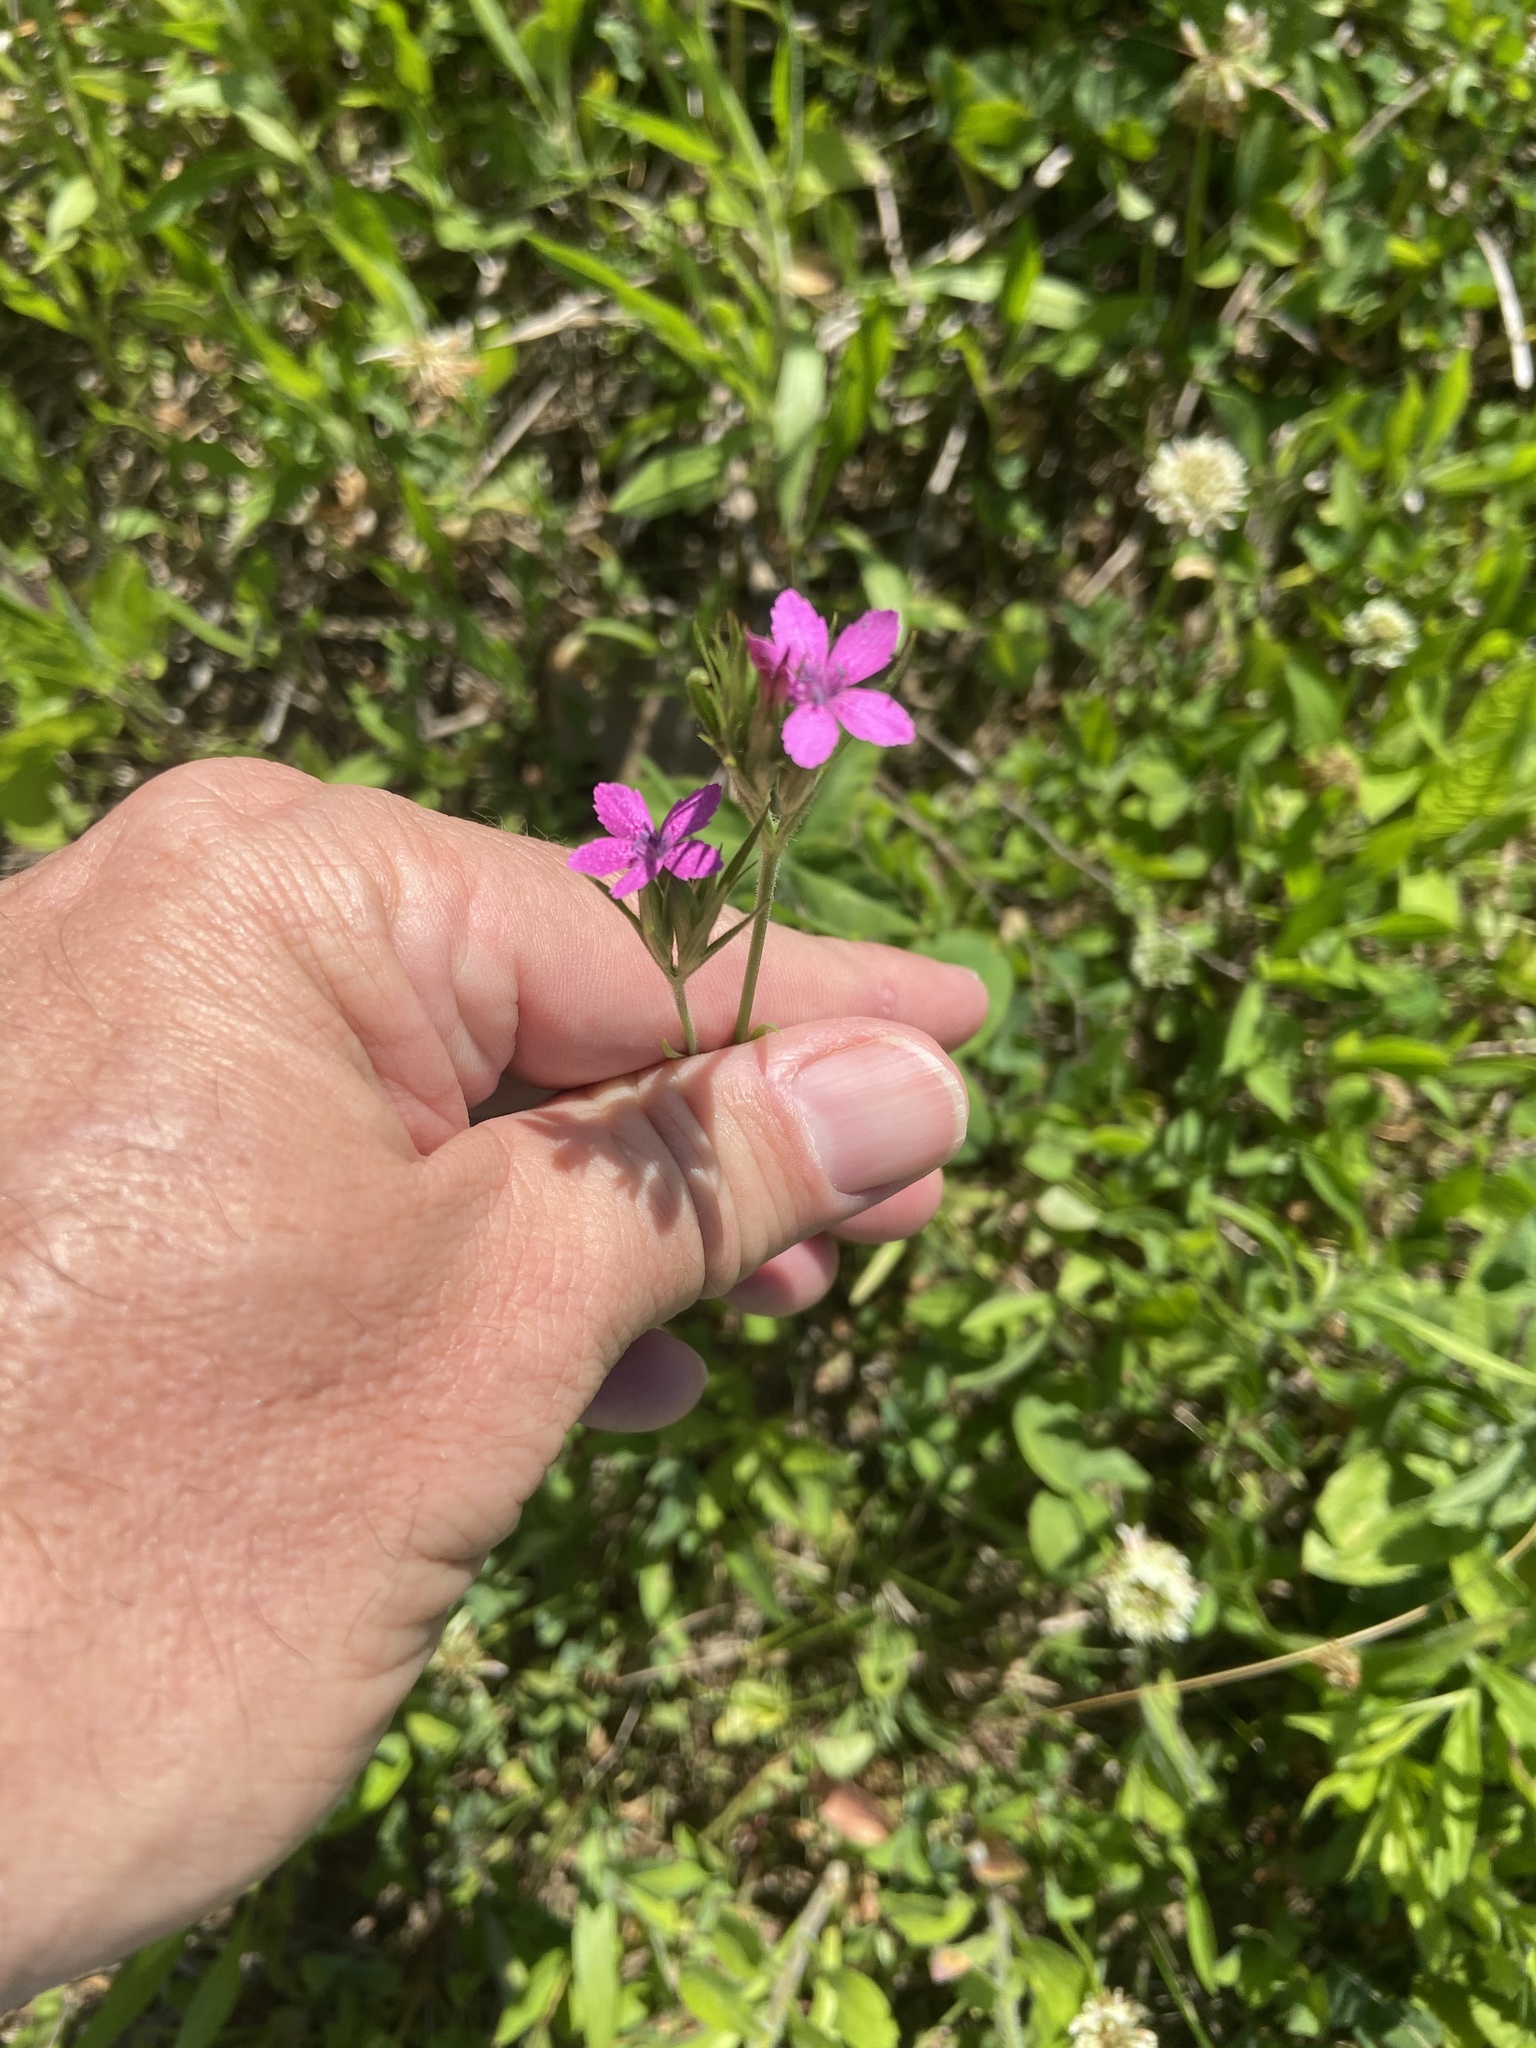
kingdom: Plantae
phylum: Tracheophyta
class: Magnoliopsida
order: Caryophyllales
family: Caryophyllaceae
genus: Dianthus
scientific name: Dianthus armeria
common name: Deptford pink
